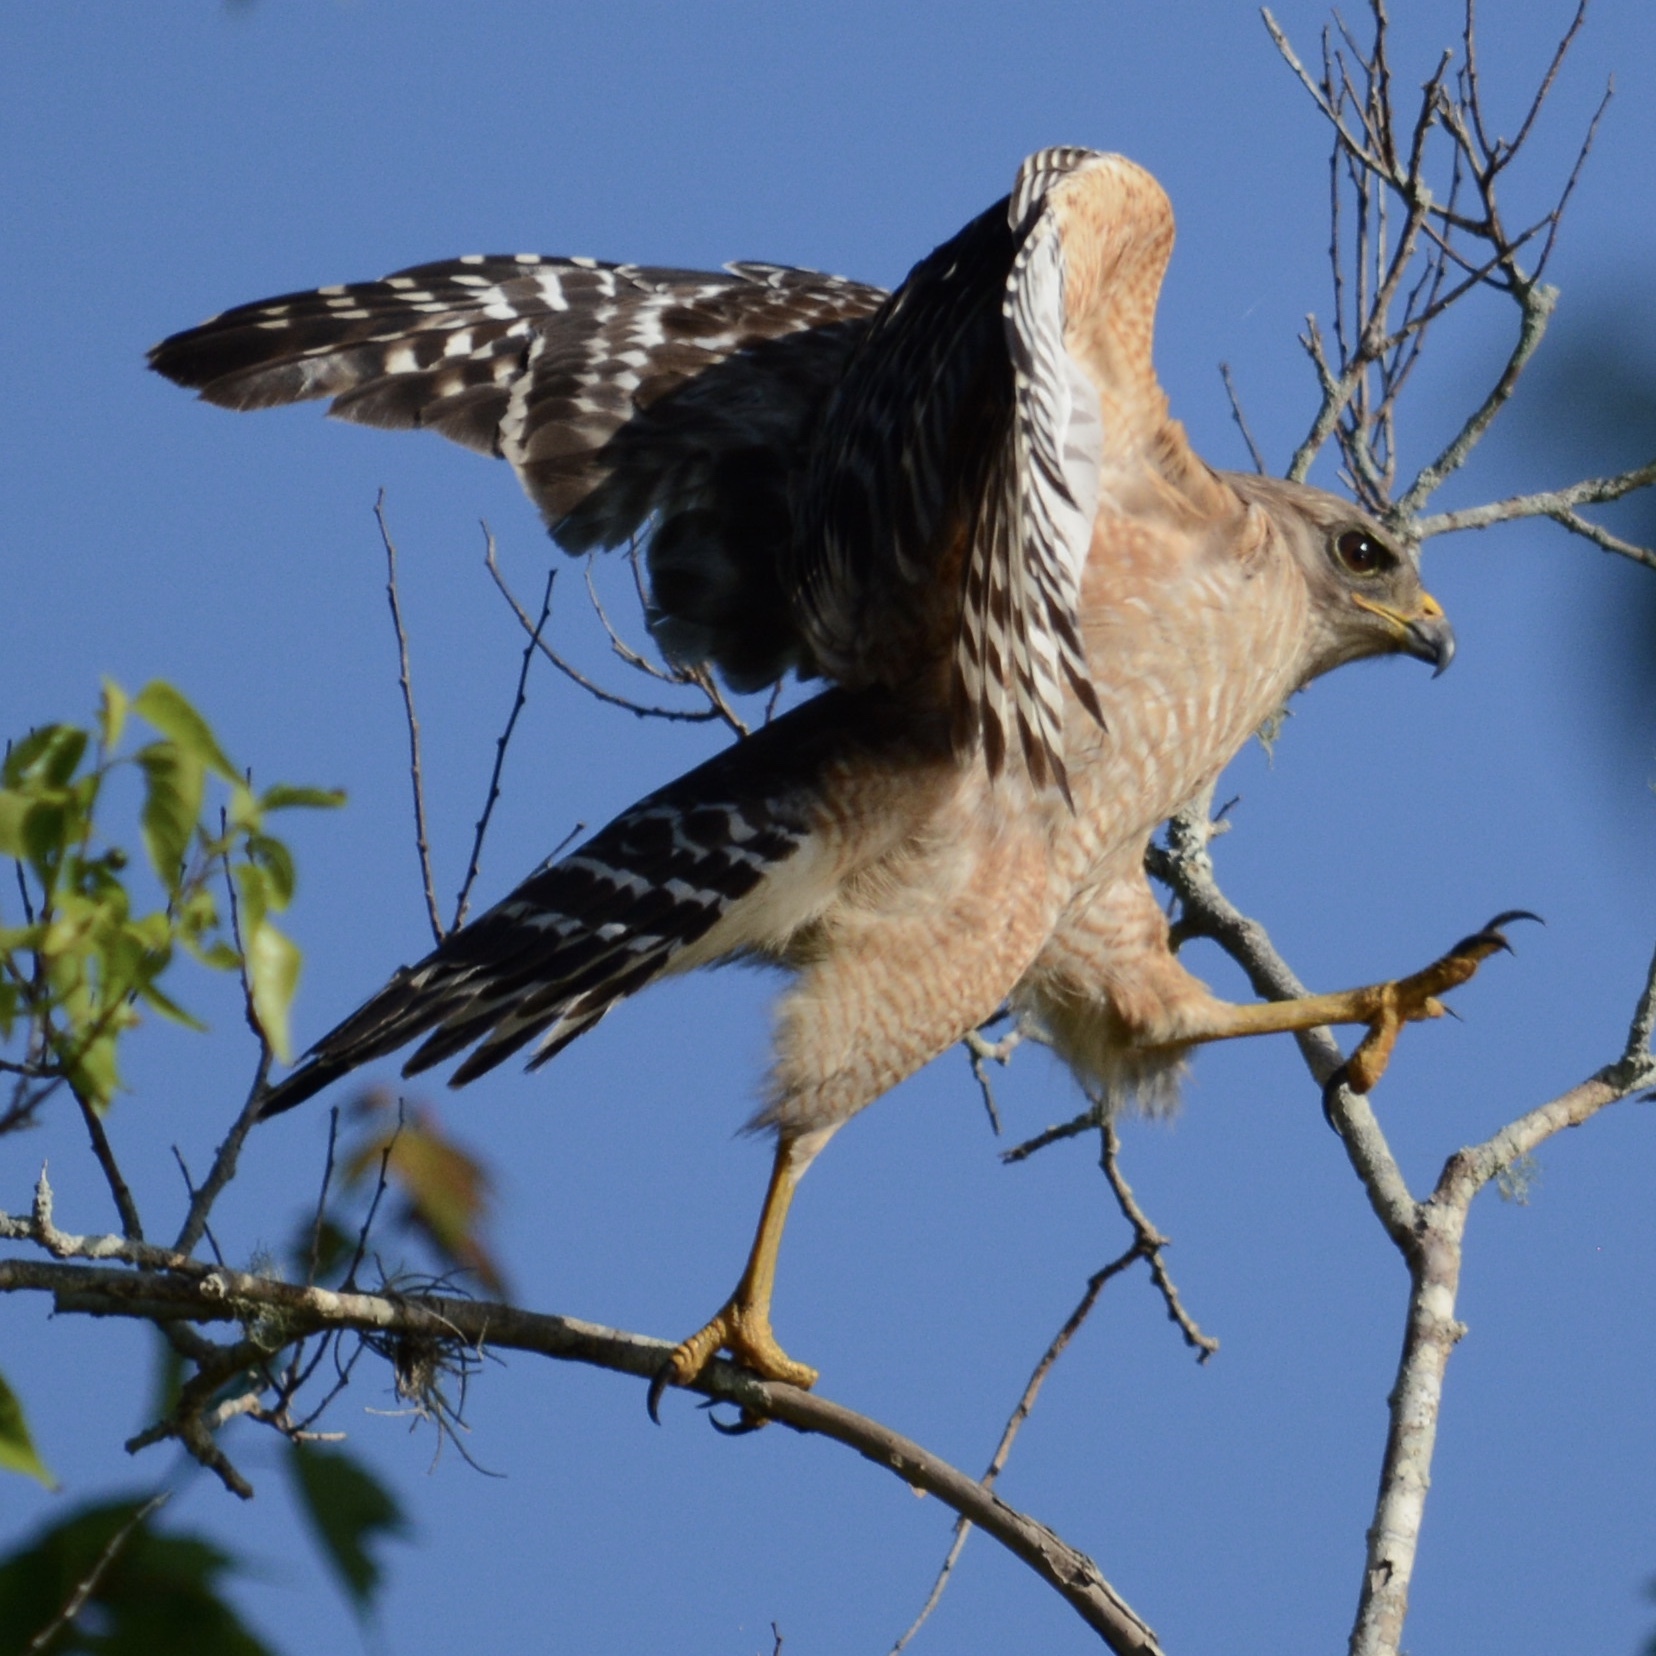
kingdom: Animalia
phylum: Chordata
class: Aves
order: Accipitriformes
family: Accipitridae
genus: Buteo
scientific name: Buteo lineatus
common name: Red-shouldered hawk
